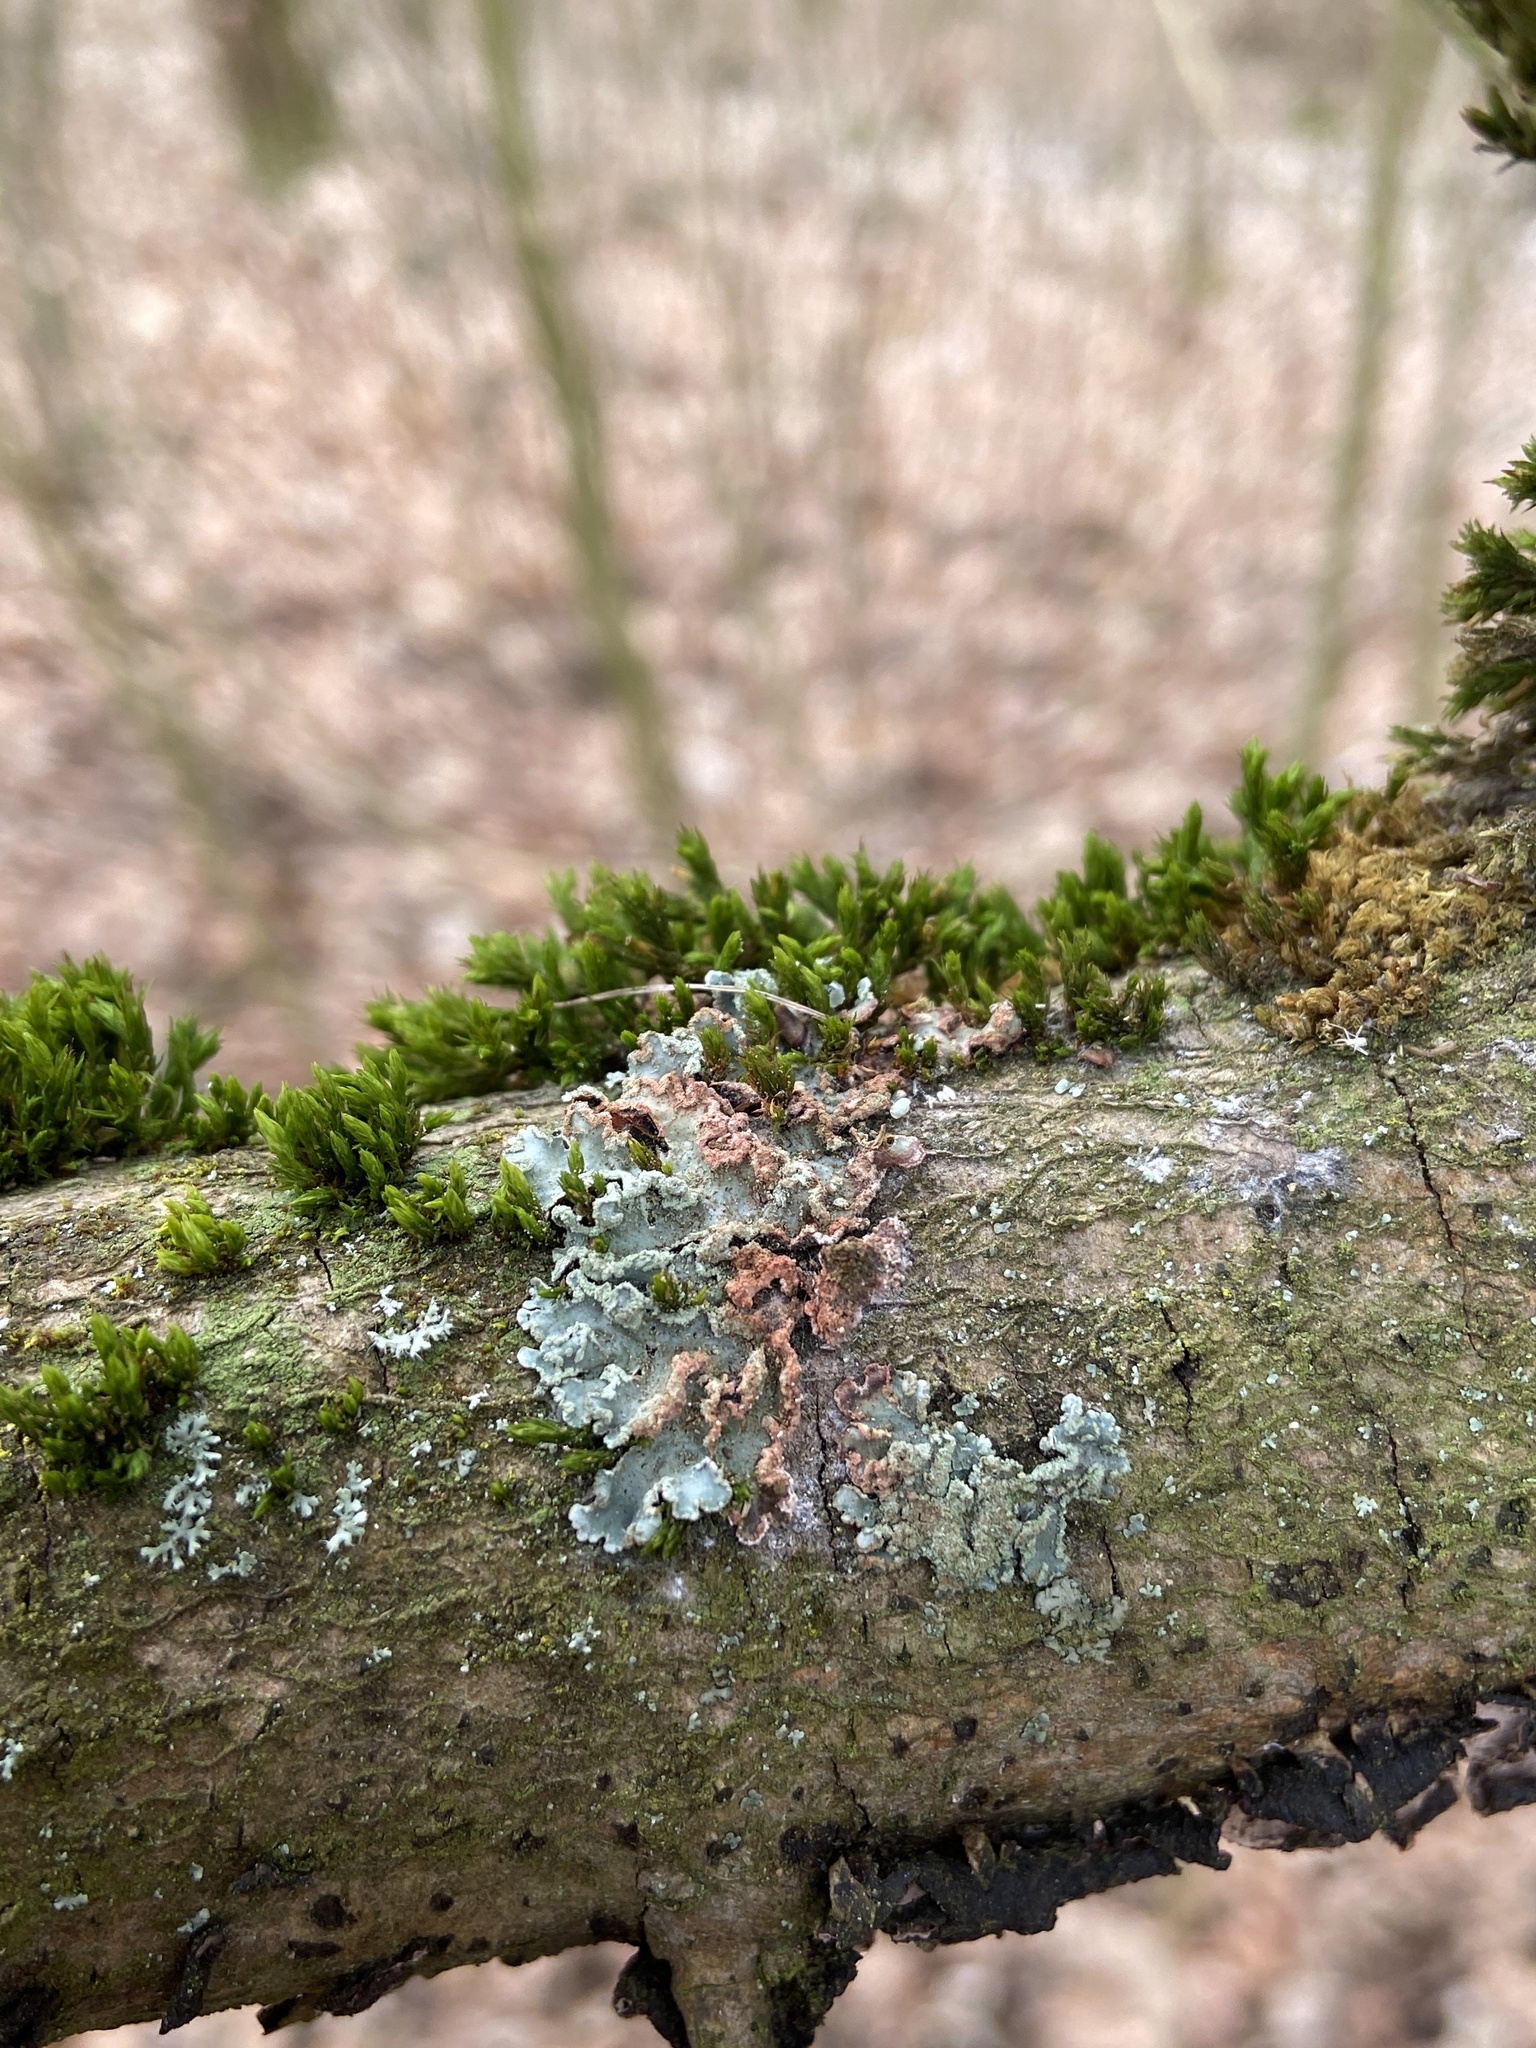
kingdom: Fungi
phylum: Ascomycota
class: Lecanoromycetes
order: Lecanorales
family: Parmeliaceae
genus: Punctelia
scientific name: Punctelia jeckeri
